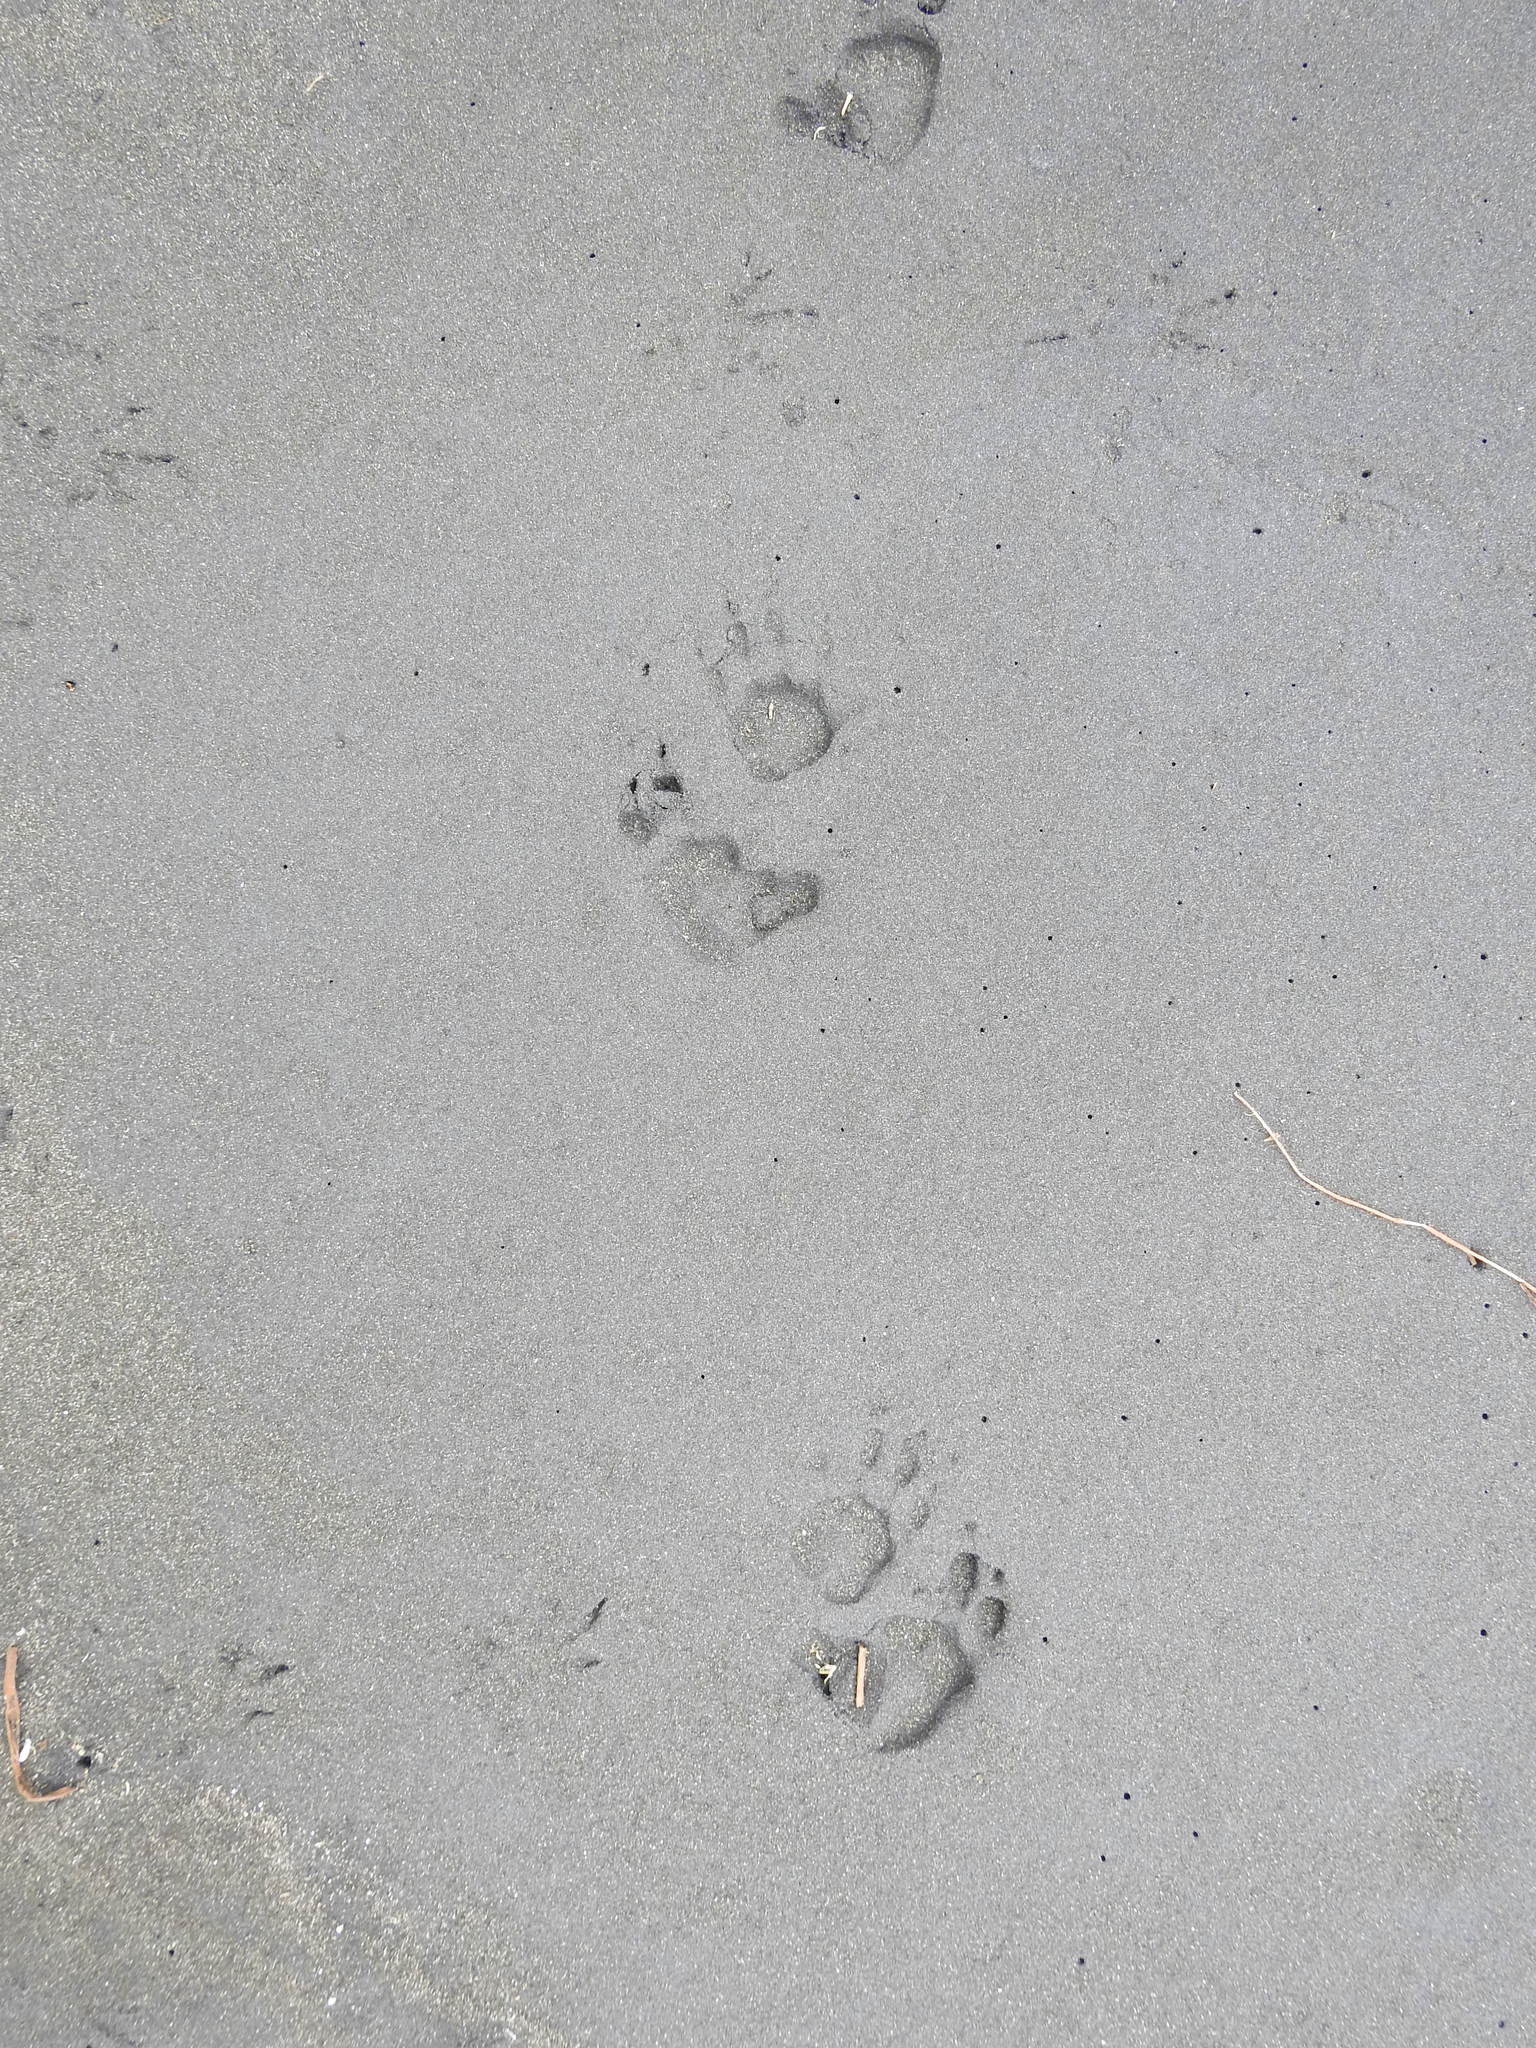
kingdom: Animalia
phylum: Chordata
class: Mammalia
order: Diprotodontia
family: Phalangeridae
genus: Trichosurus
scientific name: Trichosurus vulpecula
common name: Common brushtail
